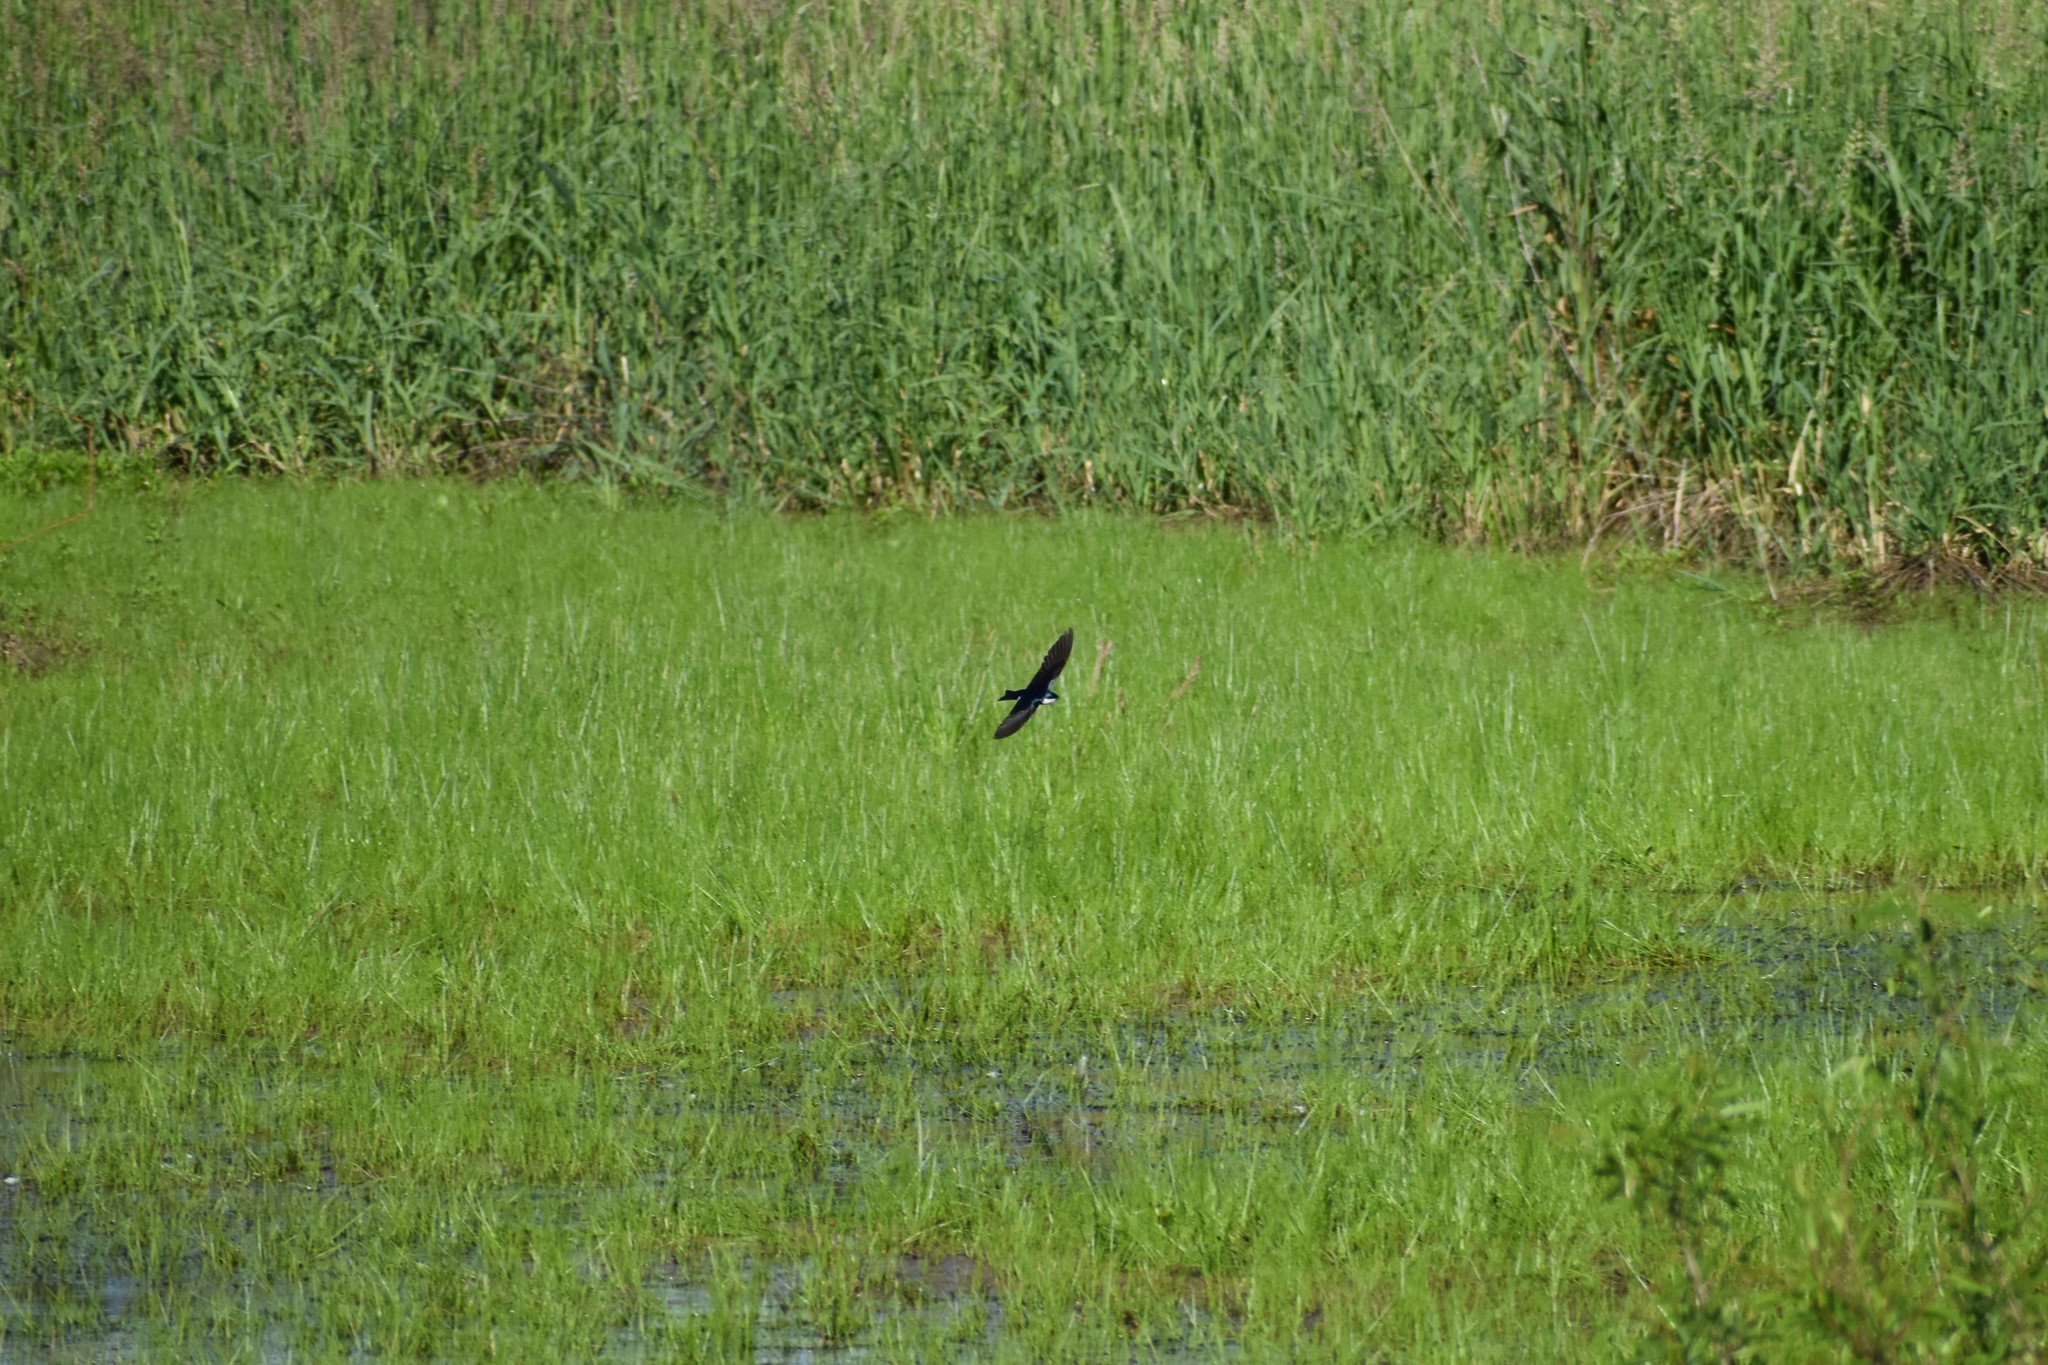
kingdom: Animalia
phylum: Chordata
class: Aves
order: Passeriformes
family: Hirundinidae
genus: Tachycineta
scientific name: Tachycineta bicolor
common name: Tree swallow
